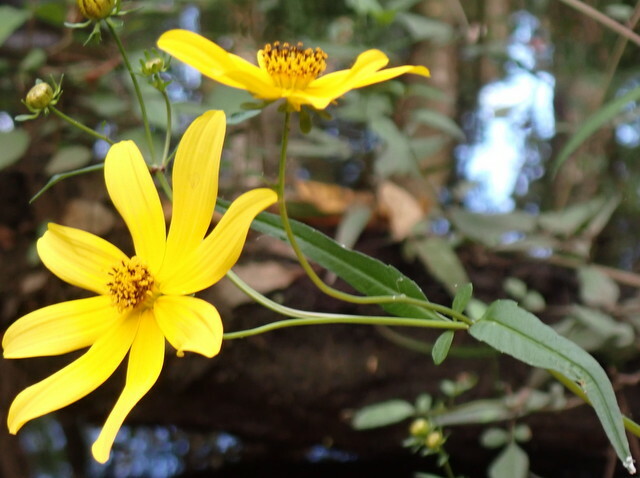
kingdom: Plantae
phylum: Tracheophyta
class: Magnoliopsida
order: Asterales
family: Asteraceae
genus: Bidens
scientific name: Bidens mitis
